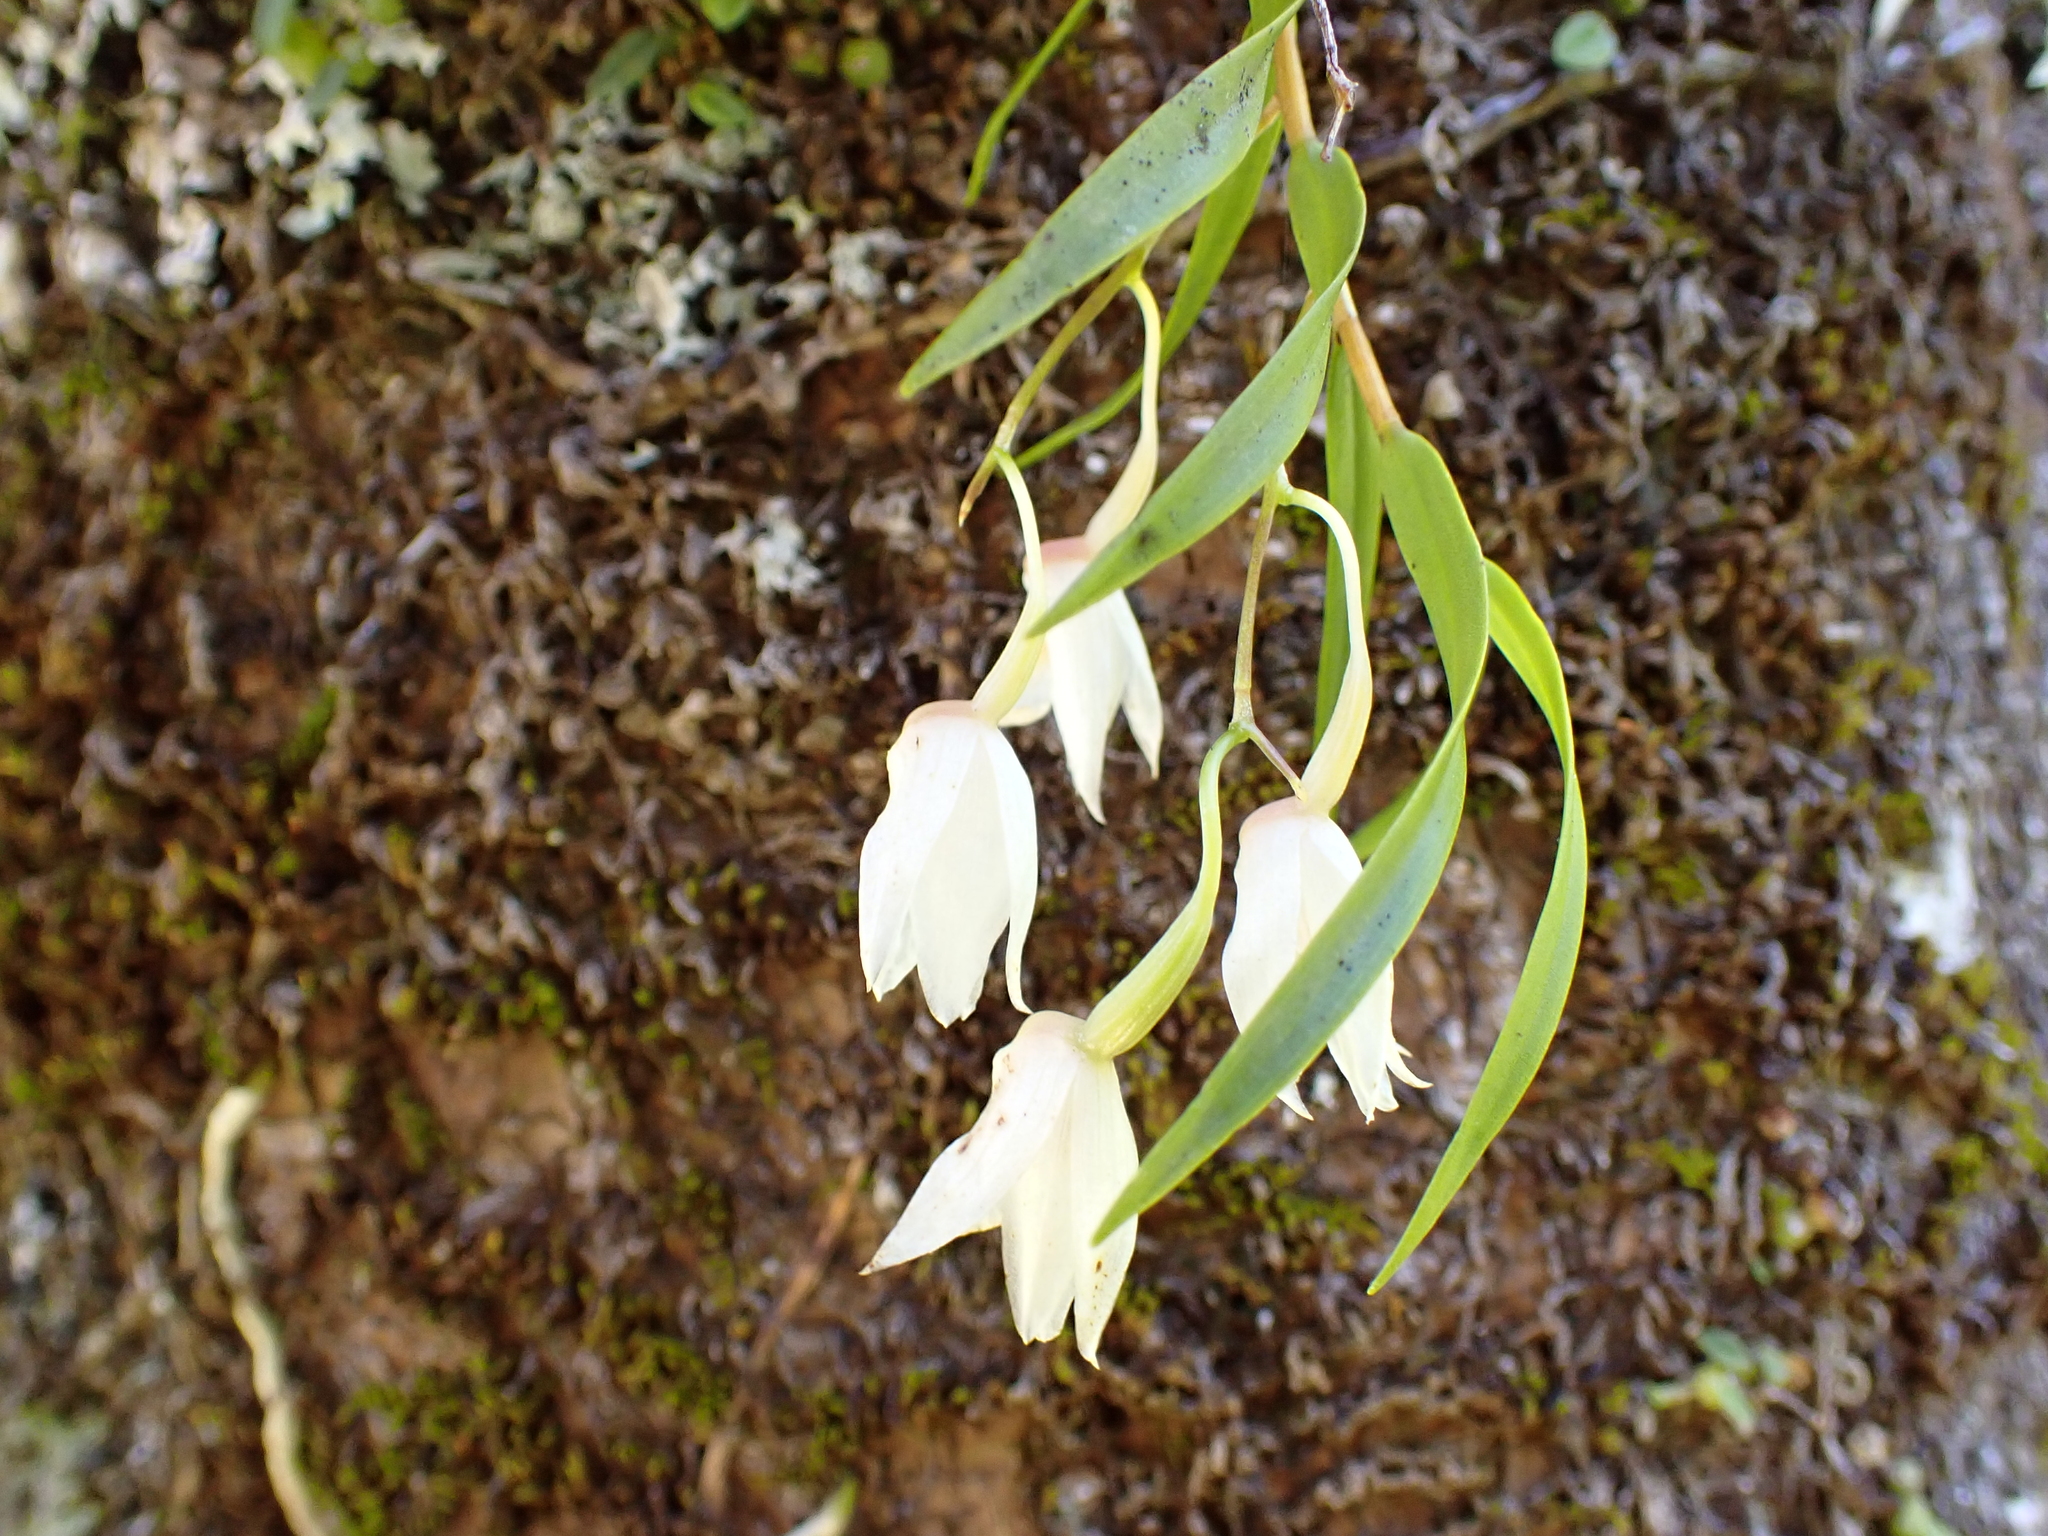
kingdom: Plantae
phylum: Tracheophyta
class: Liliopsida
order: Asparagales
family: Orchidaceae
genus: Dendrobium
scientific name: Dendrobium cunninghamii
